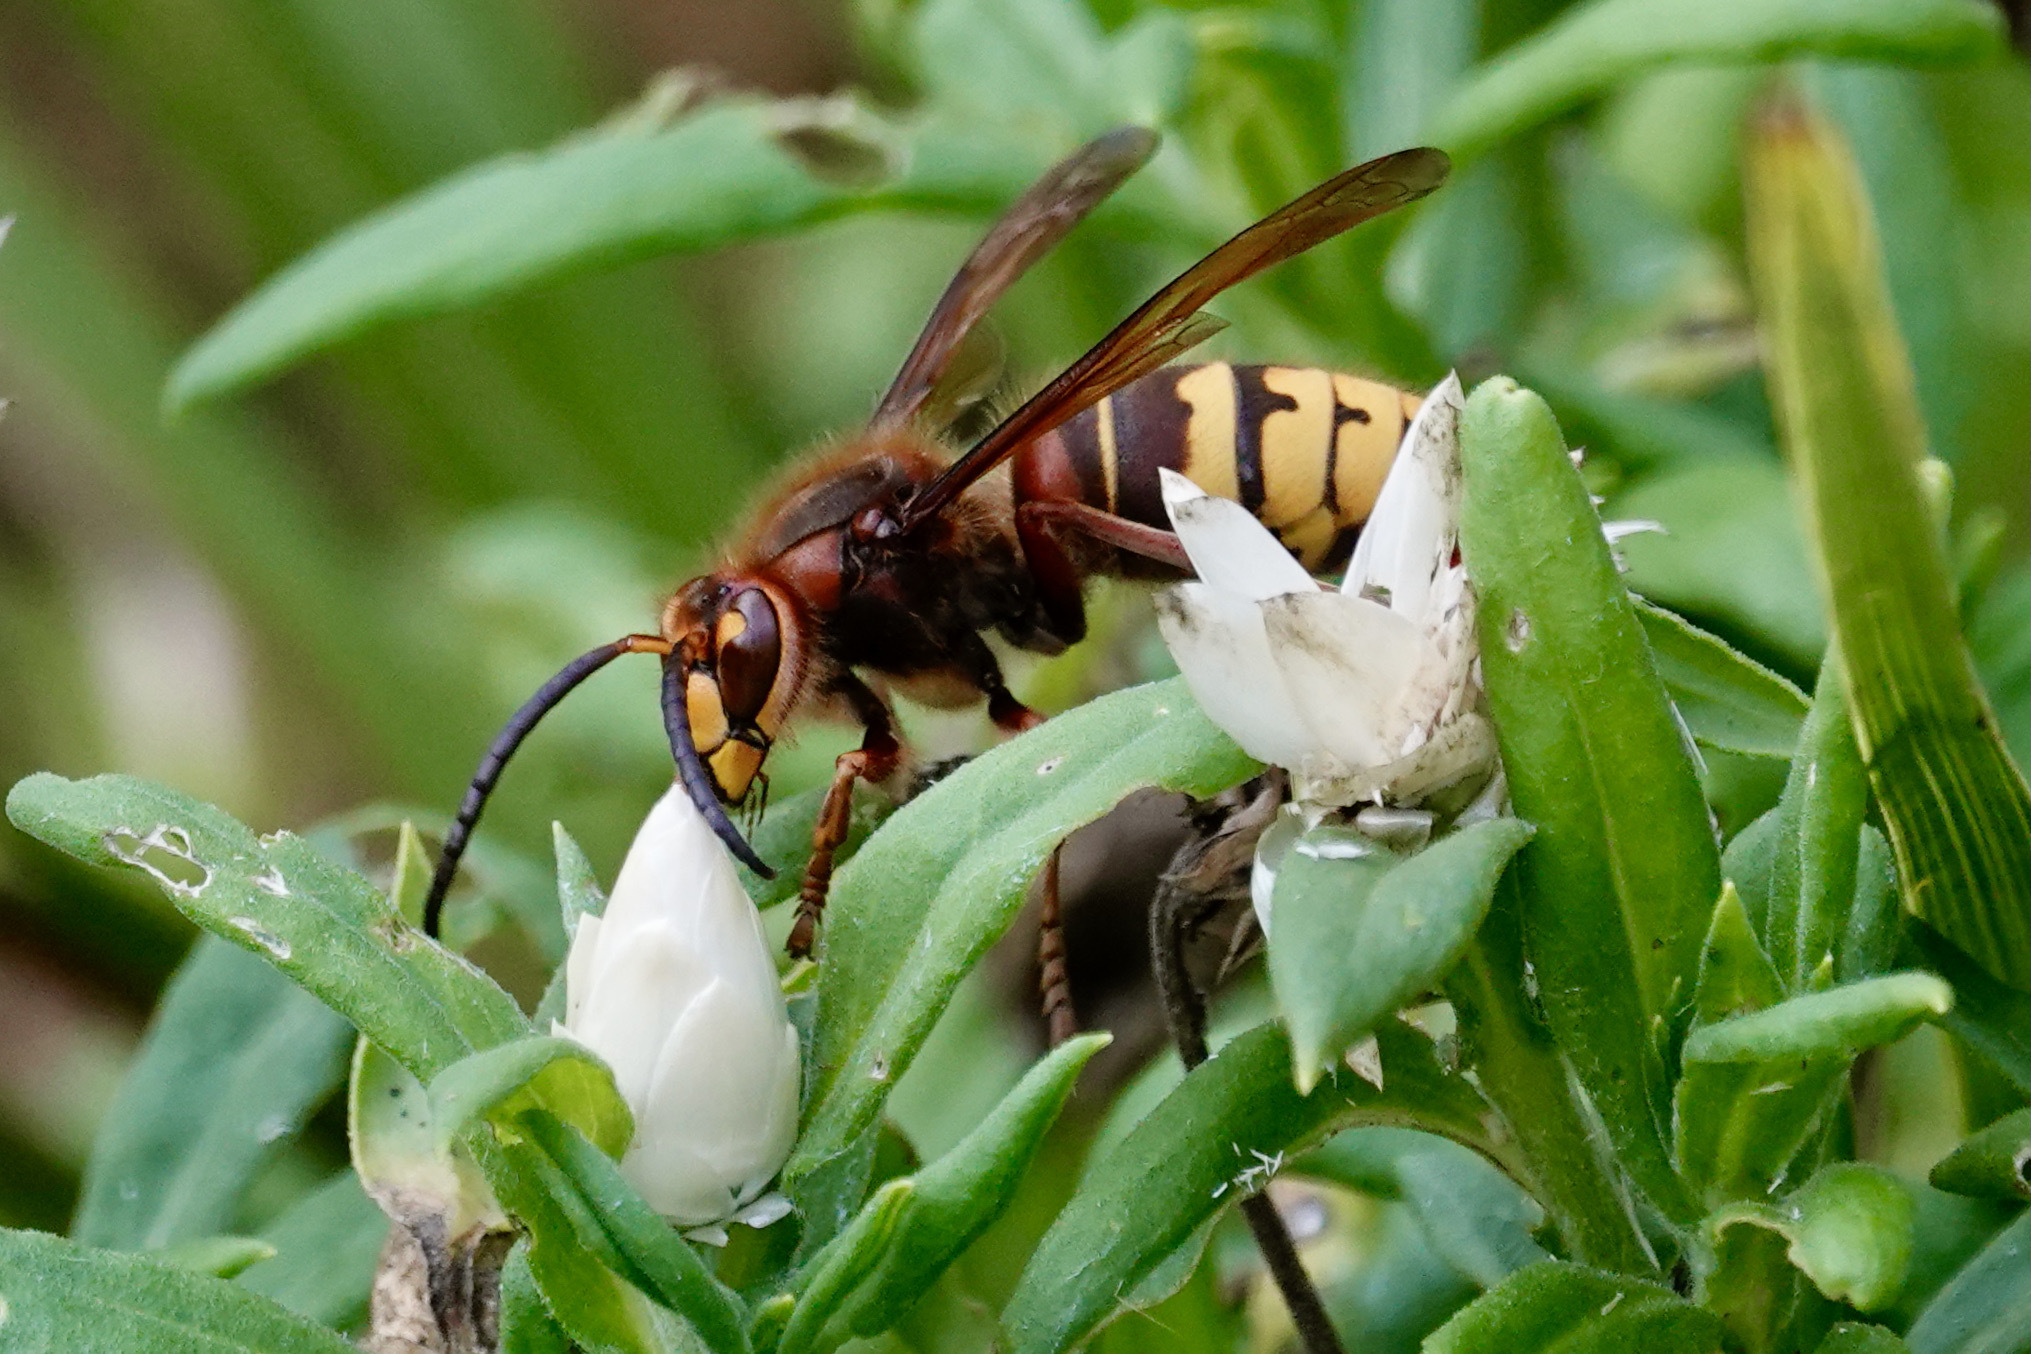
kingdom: Animalia
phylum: Arthropoda
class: Insecta
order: Hymenoptera
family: Vespidae
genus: Vespa
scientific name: Vespa crabro
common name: Hornet
